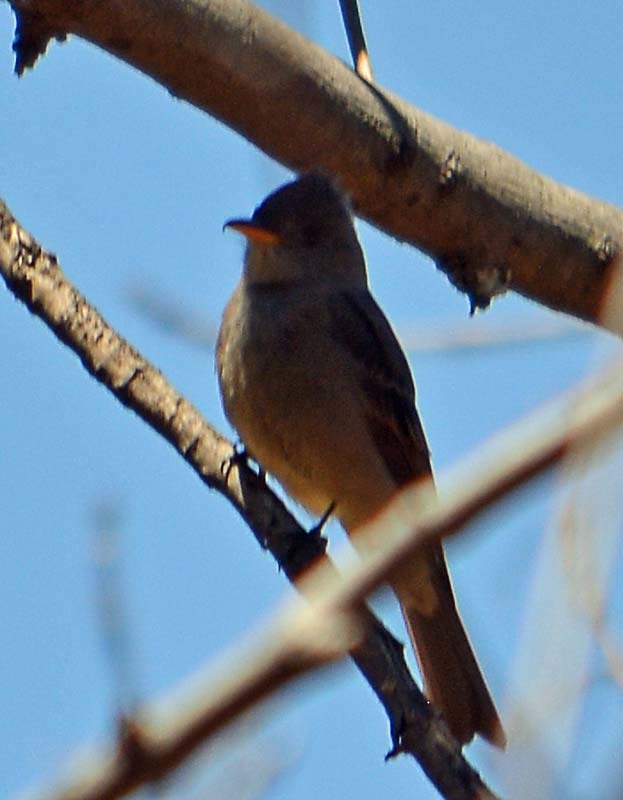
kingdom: Animalia
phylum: Chordata
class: Aves
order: Passeriformes
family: Tyrannidae
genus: Contopus
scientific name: Contopus pertinax
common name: Greater pewee
